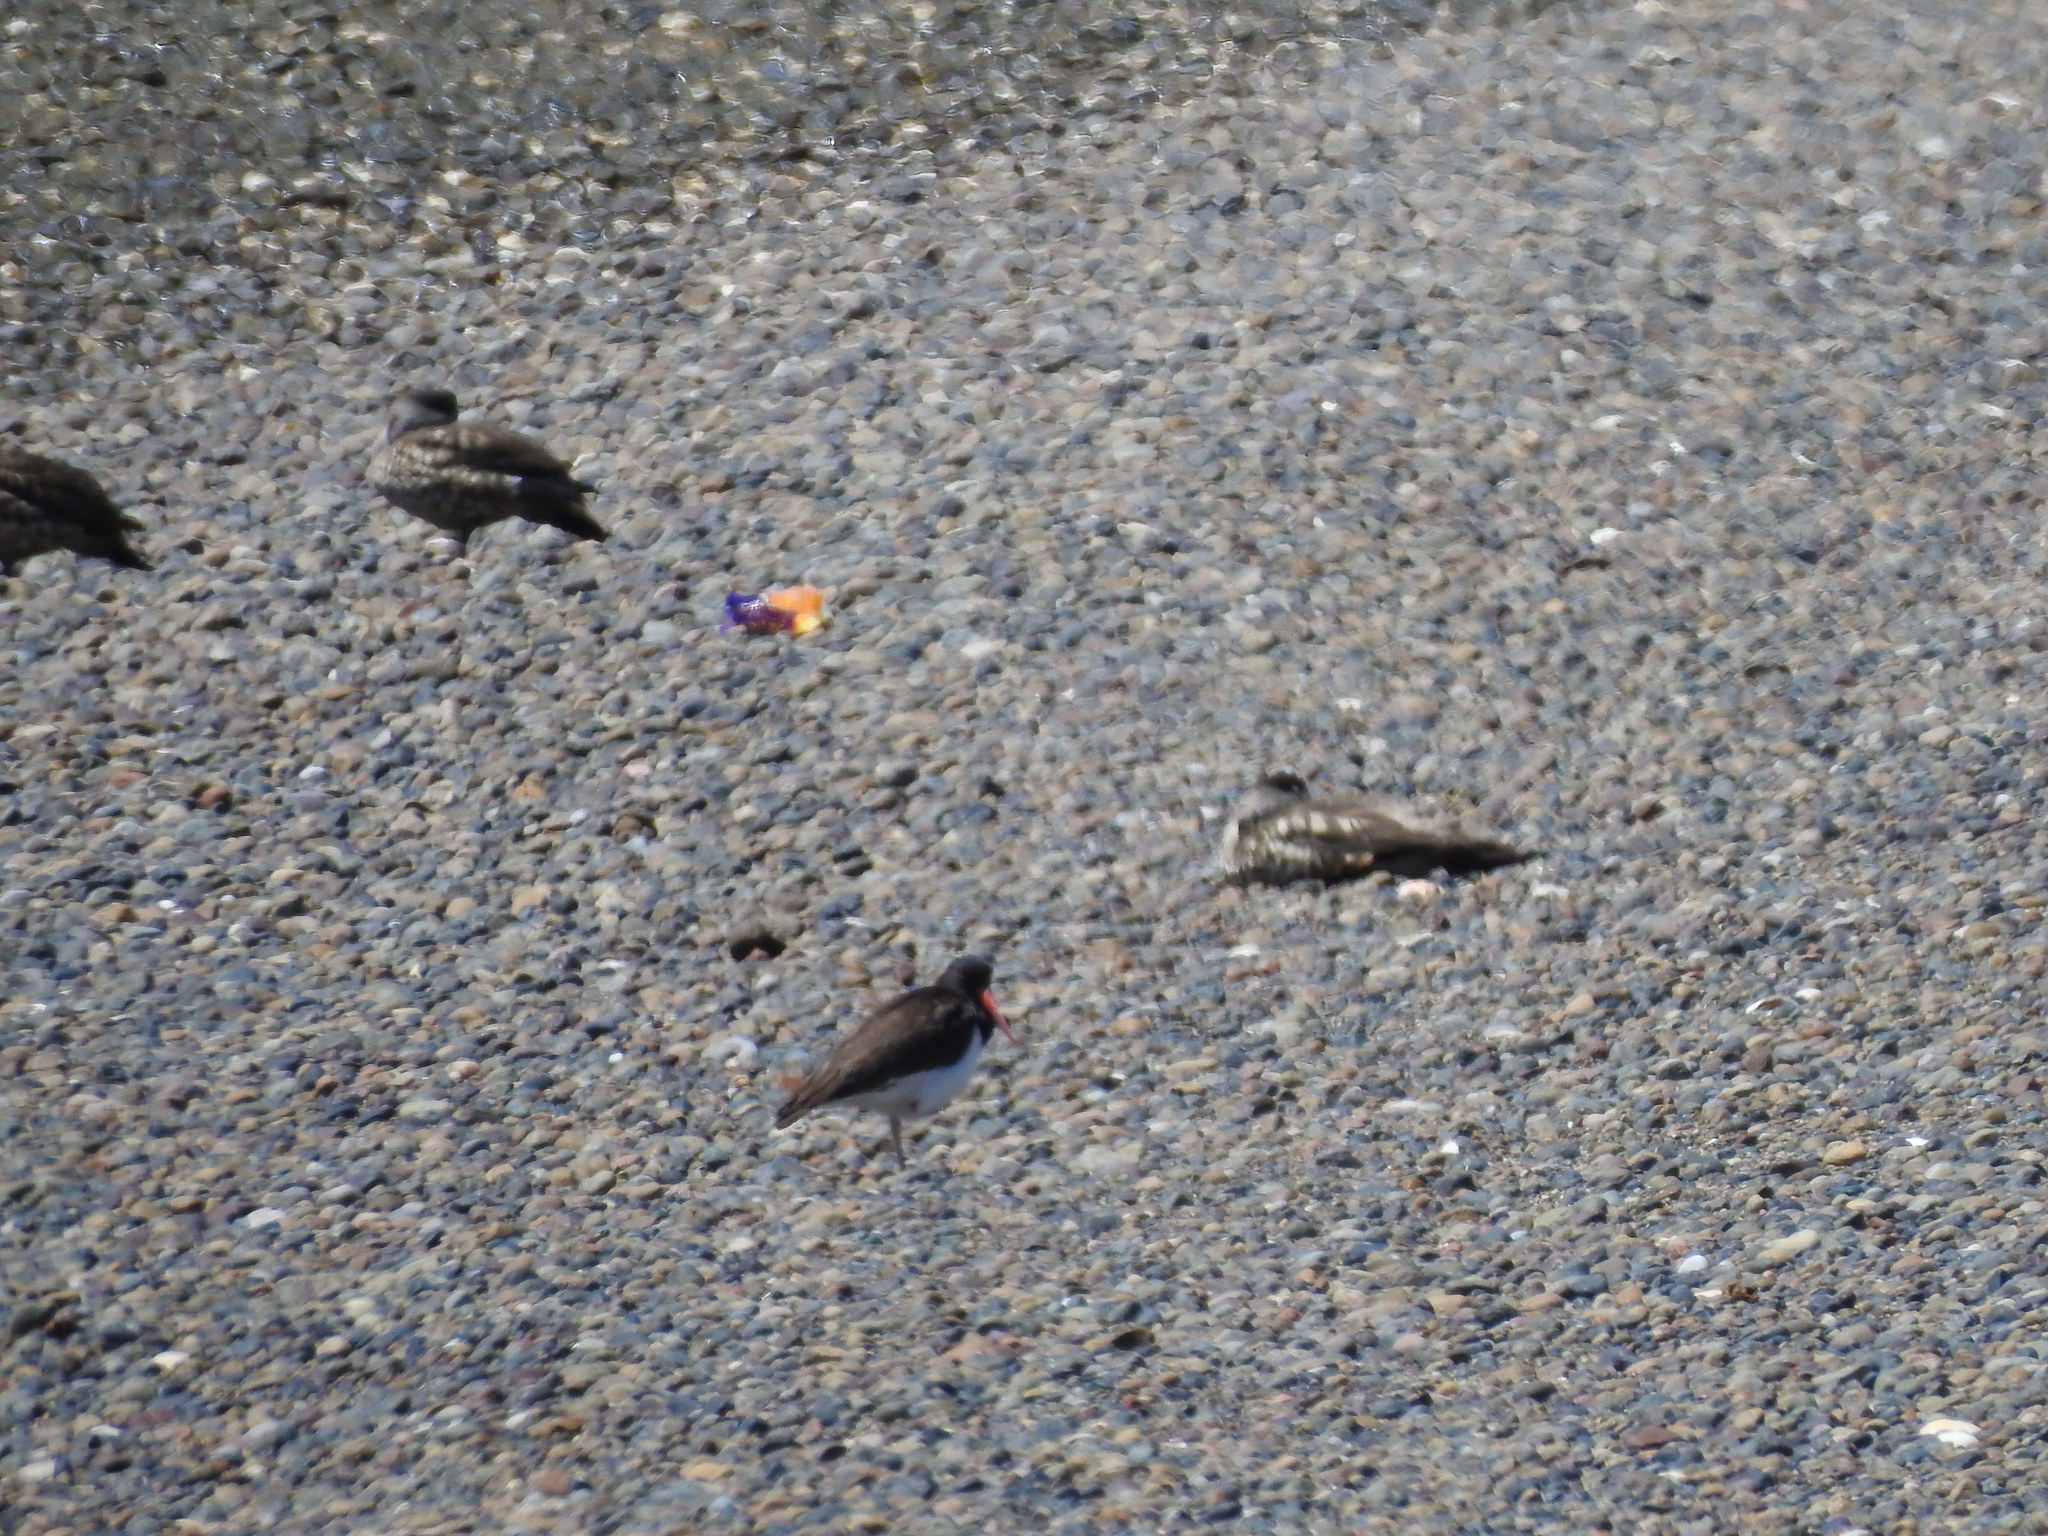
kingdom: Animalia
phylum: Chordata
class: Aves
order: Charadriiformes
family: Haematopodidae
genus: Haematopus
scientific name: Haematopus palliatus
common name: American oystercatcher
